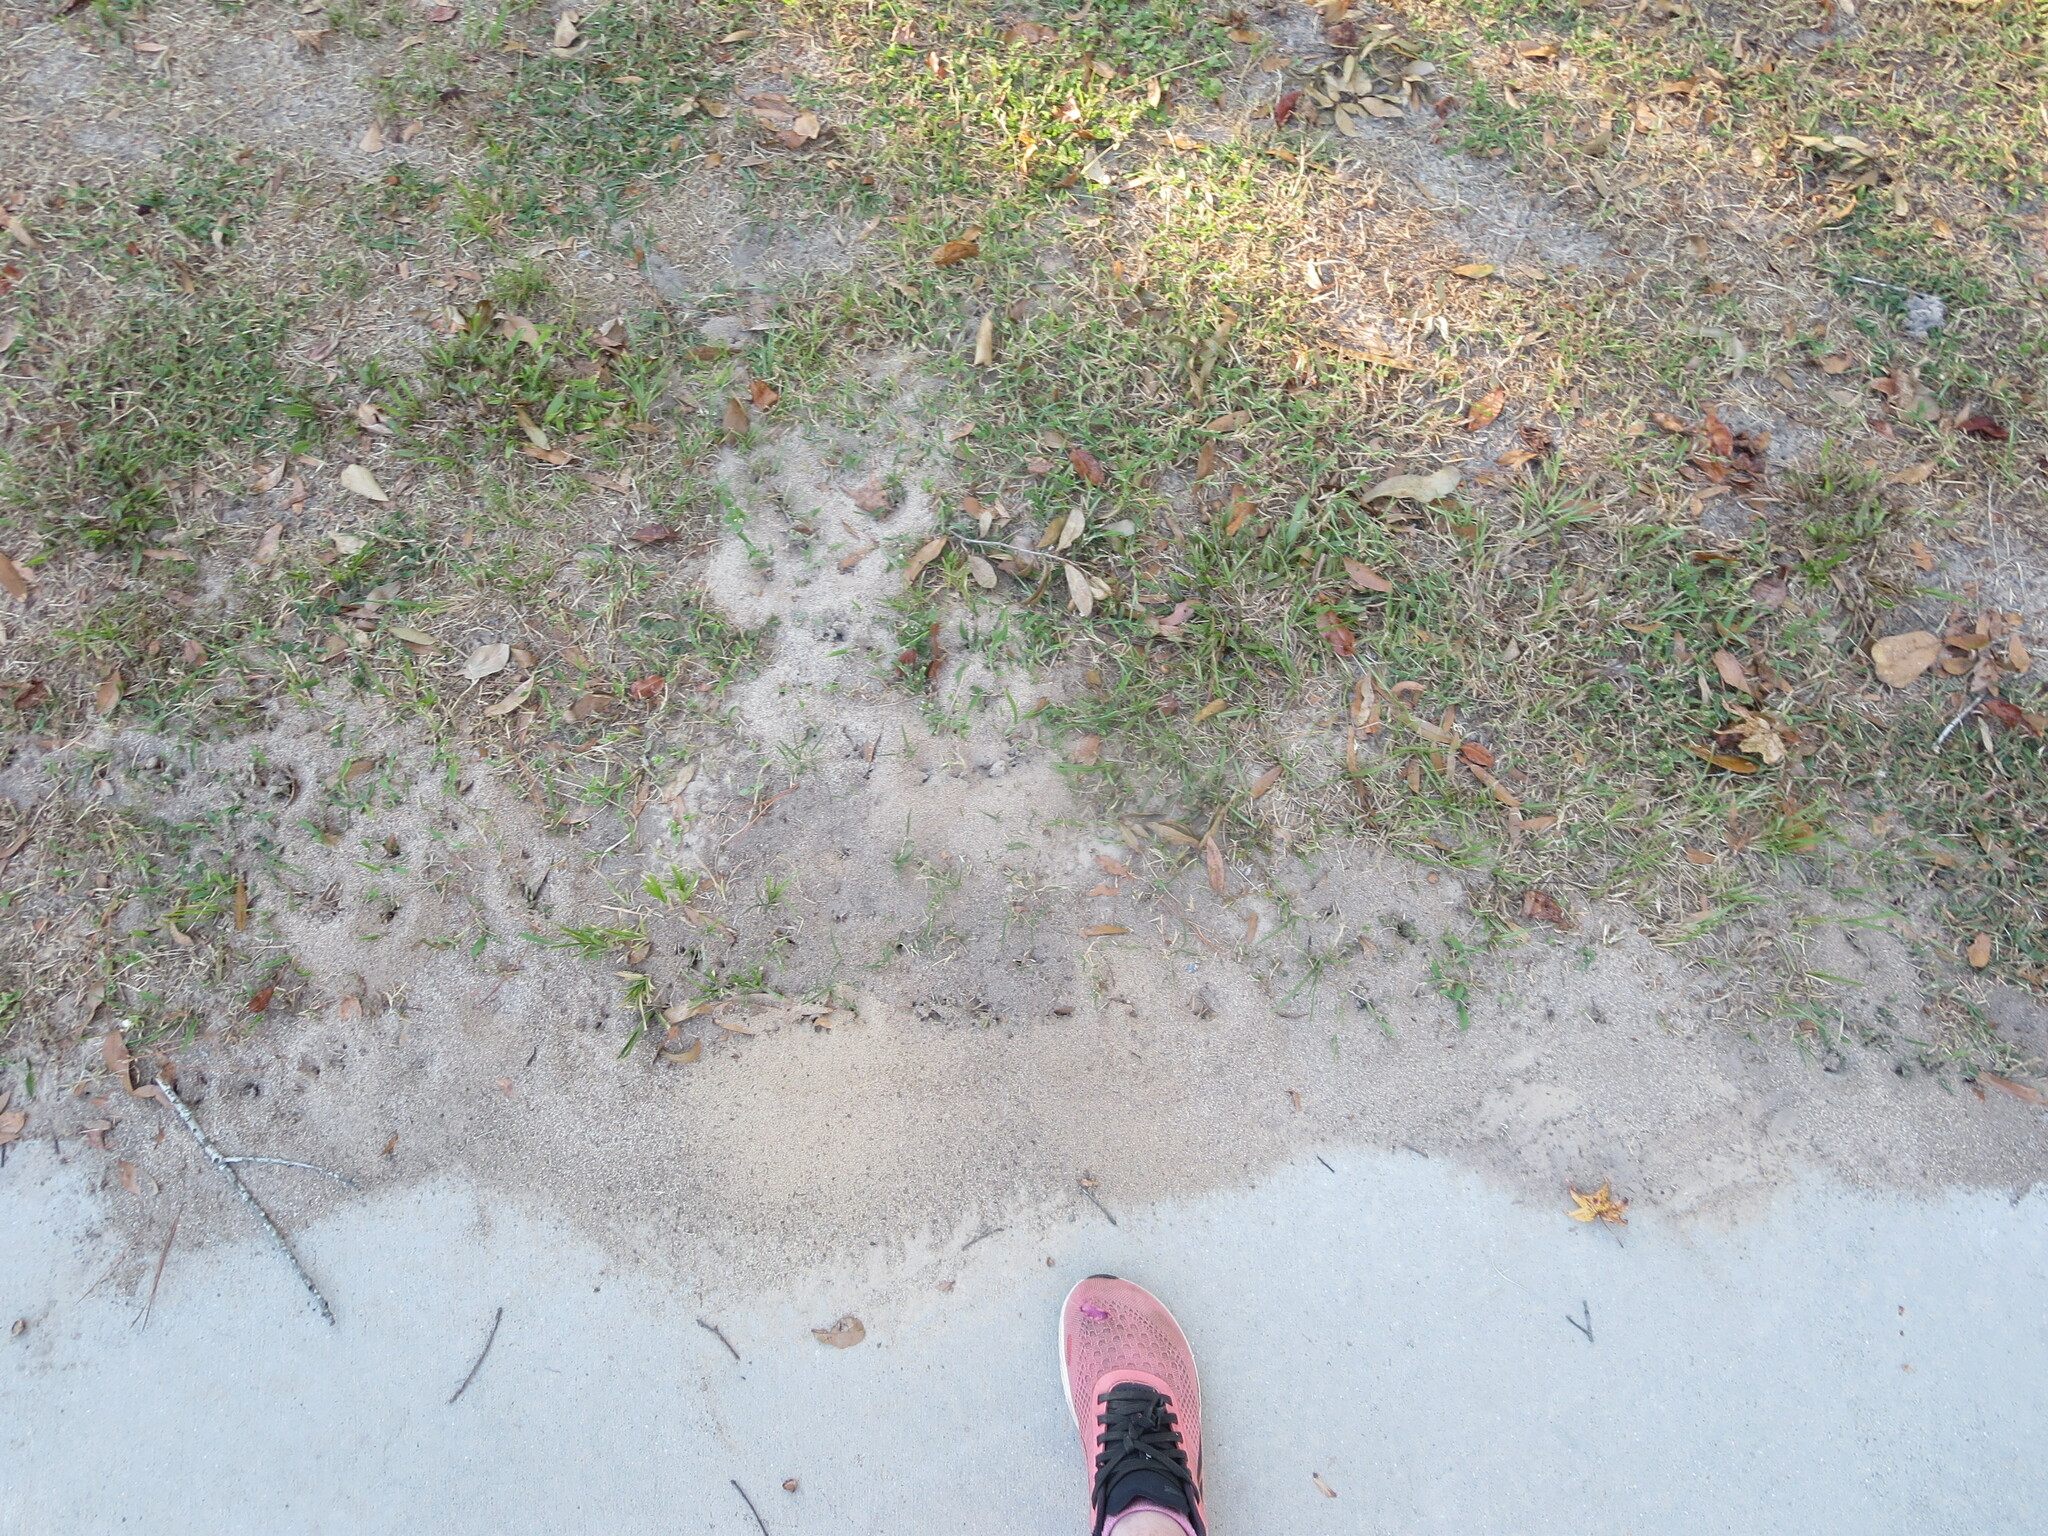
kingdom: Animalia
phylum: Arthropoda
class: Insecta
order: Hymenoptera
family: Formicidae
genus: Solenopsis
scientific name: Solenopsis invicta
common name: Red imported fire ant
